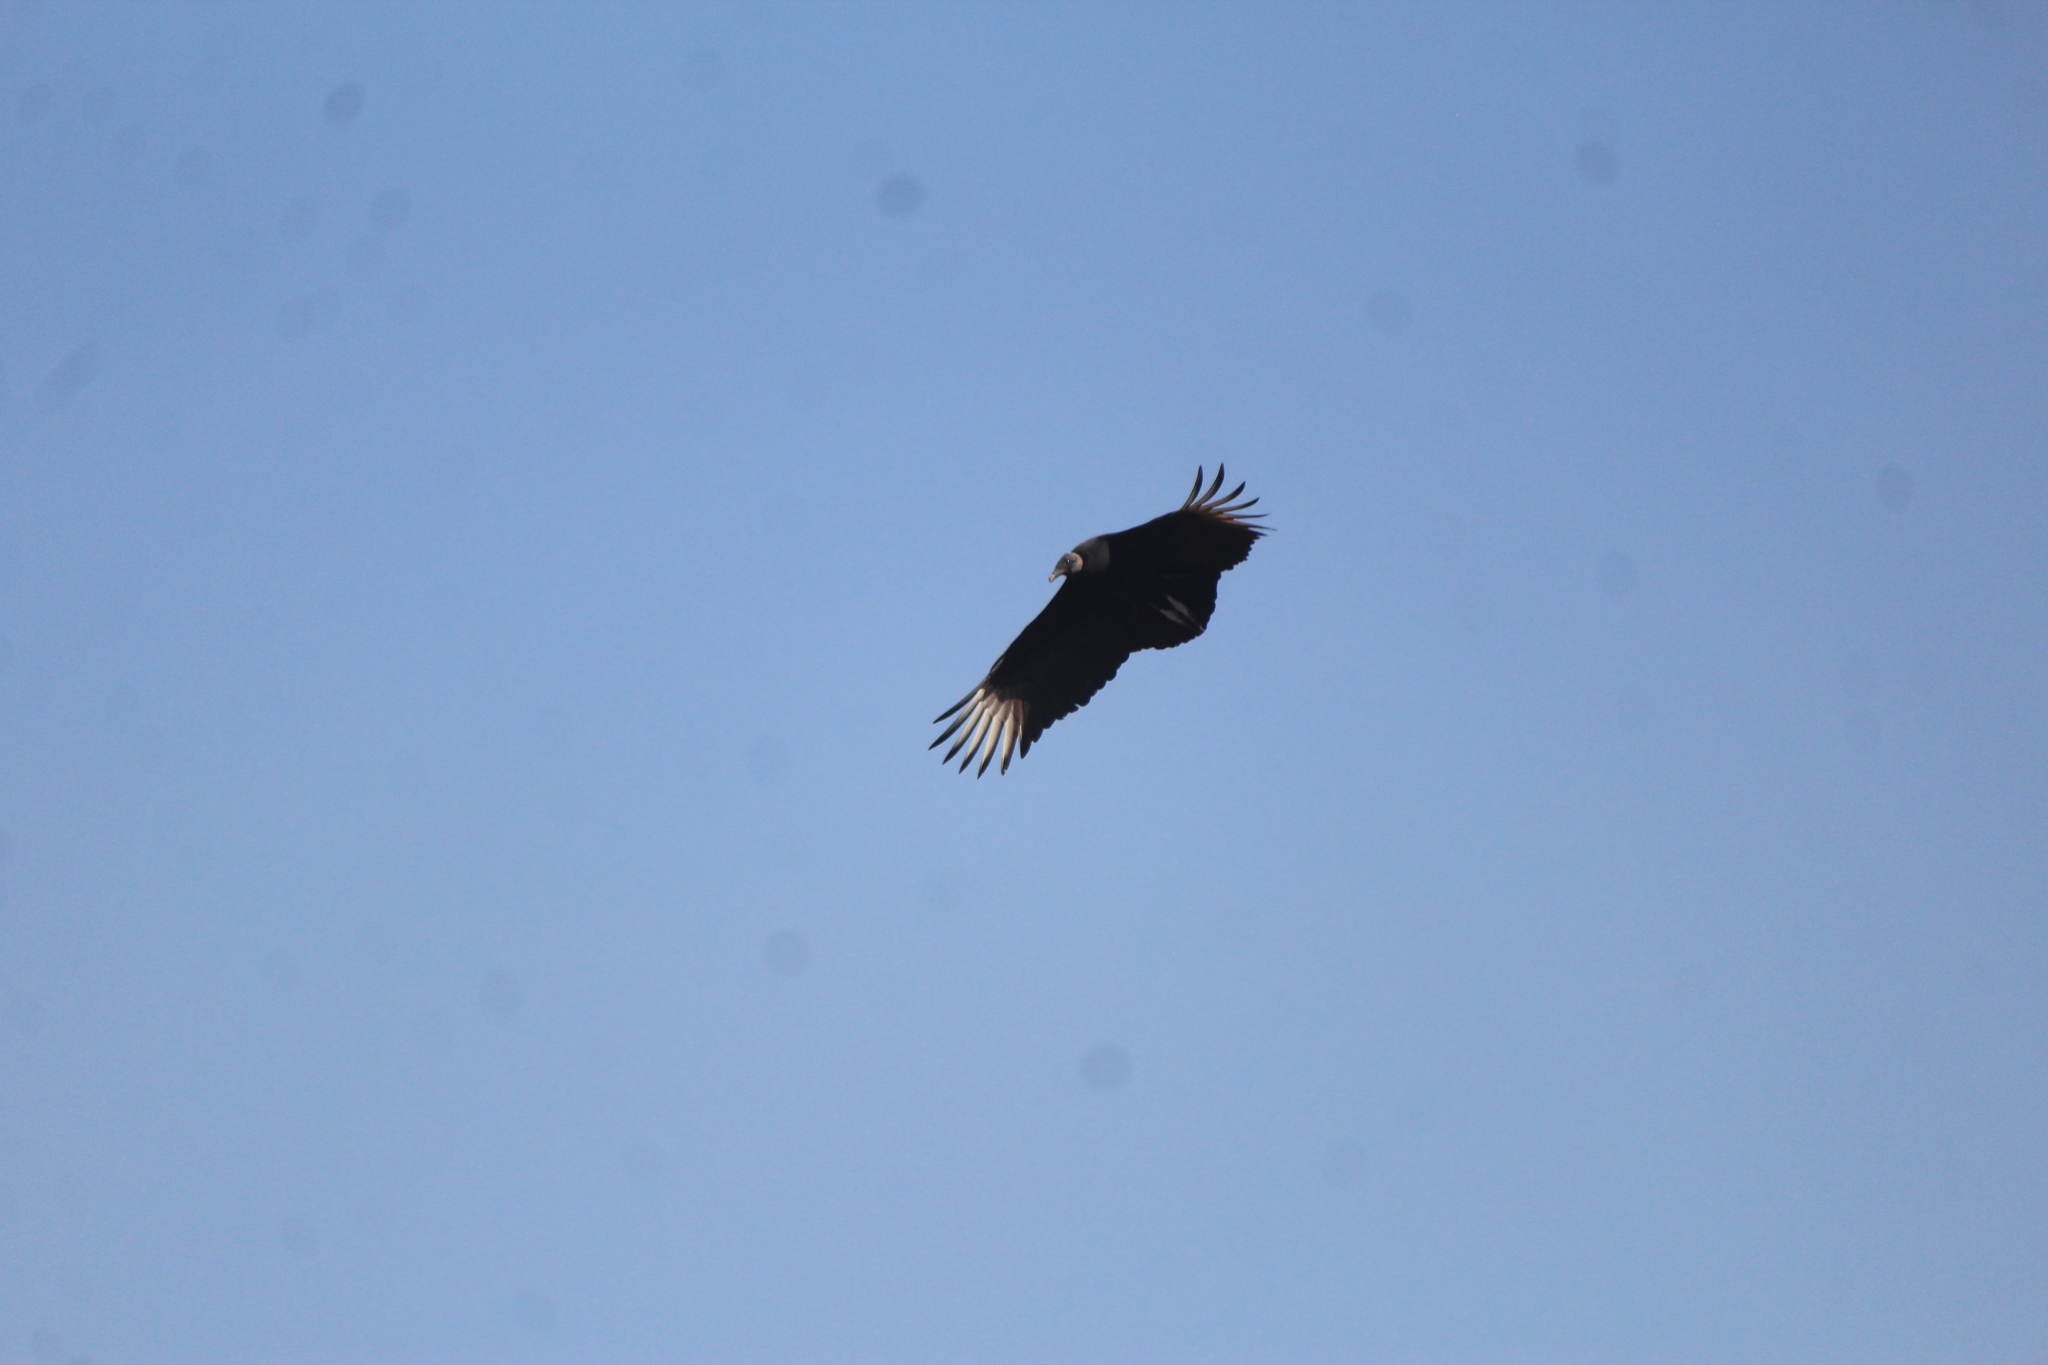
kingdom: Animalia
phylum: Chordata
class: Aves
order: Accipitriformes
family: Cathartidae
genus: Coragyps
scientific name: Coragyps atratus
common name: Black vulture
